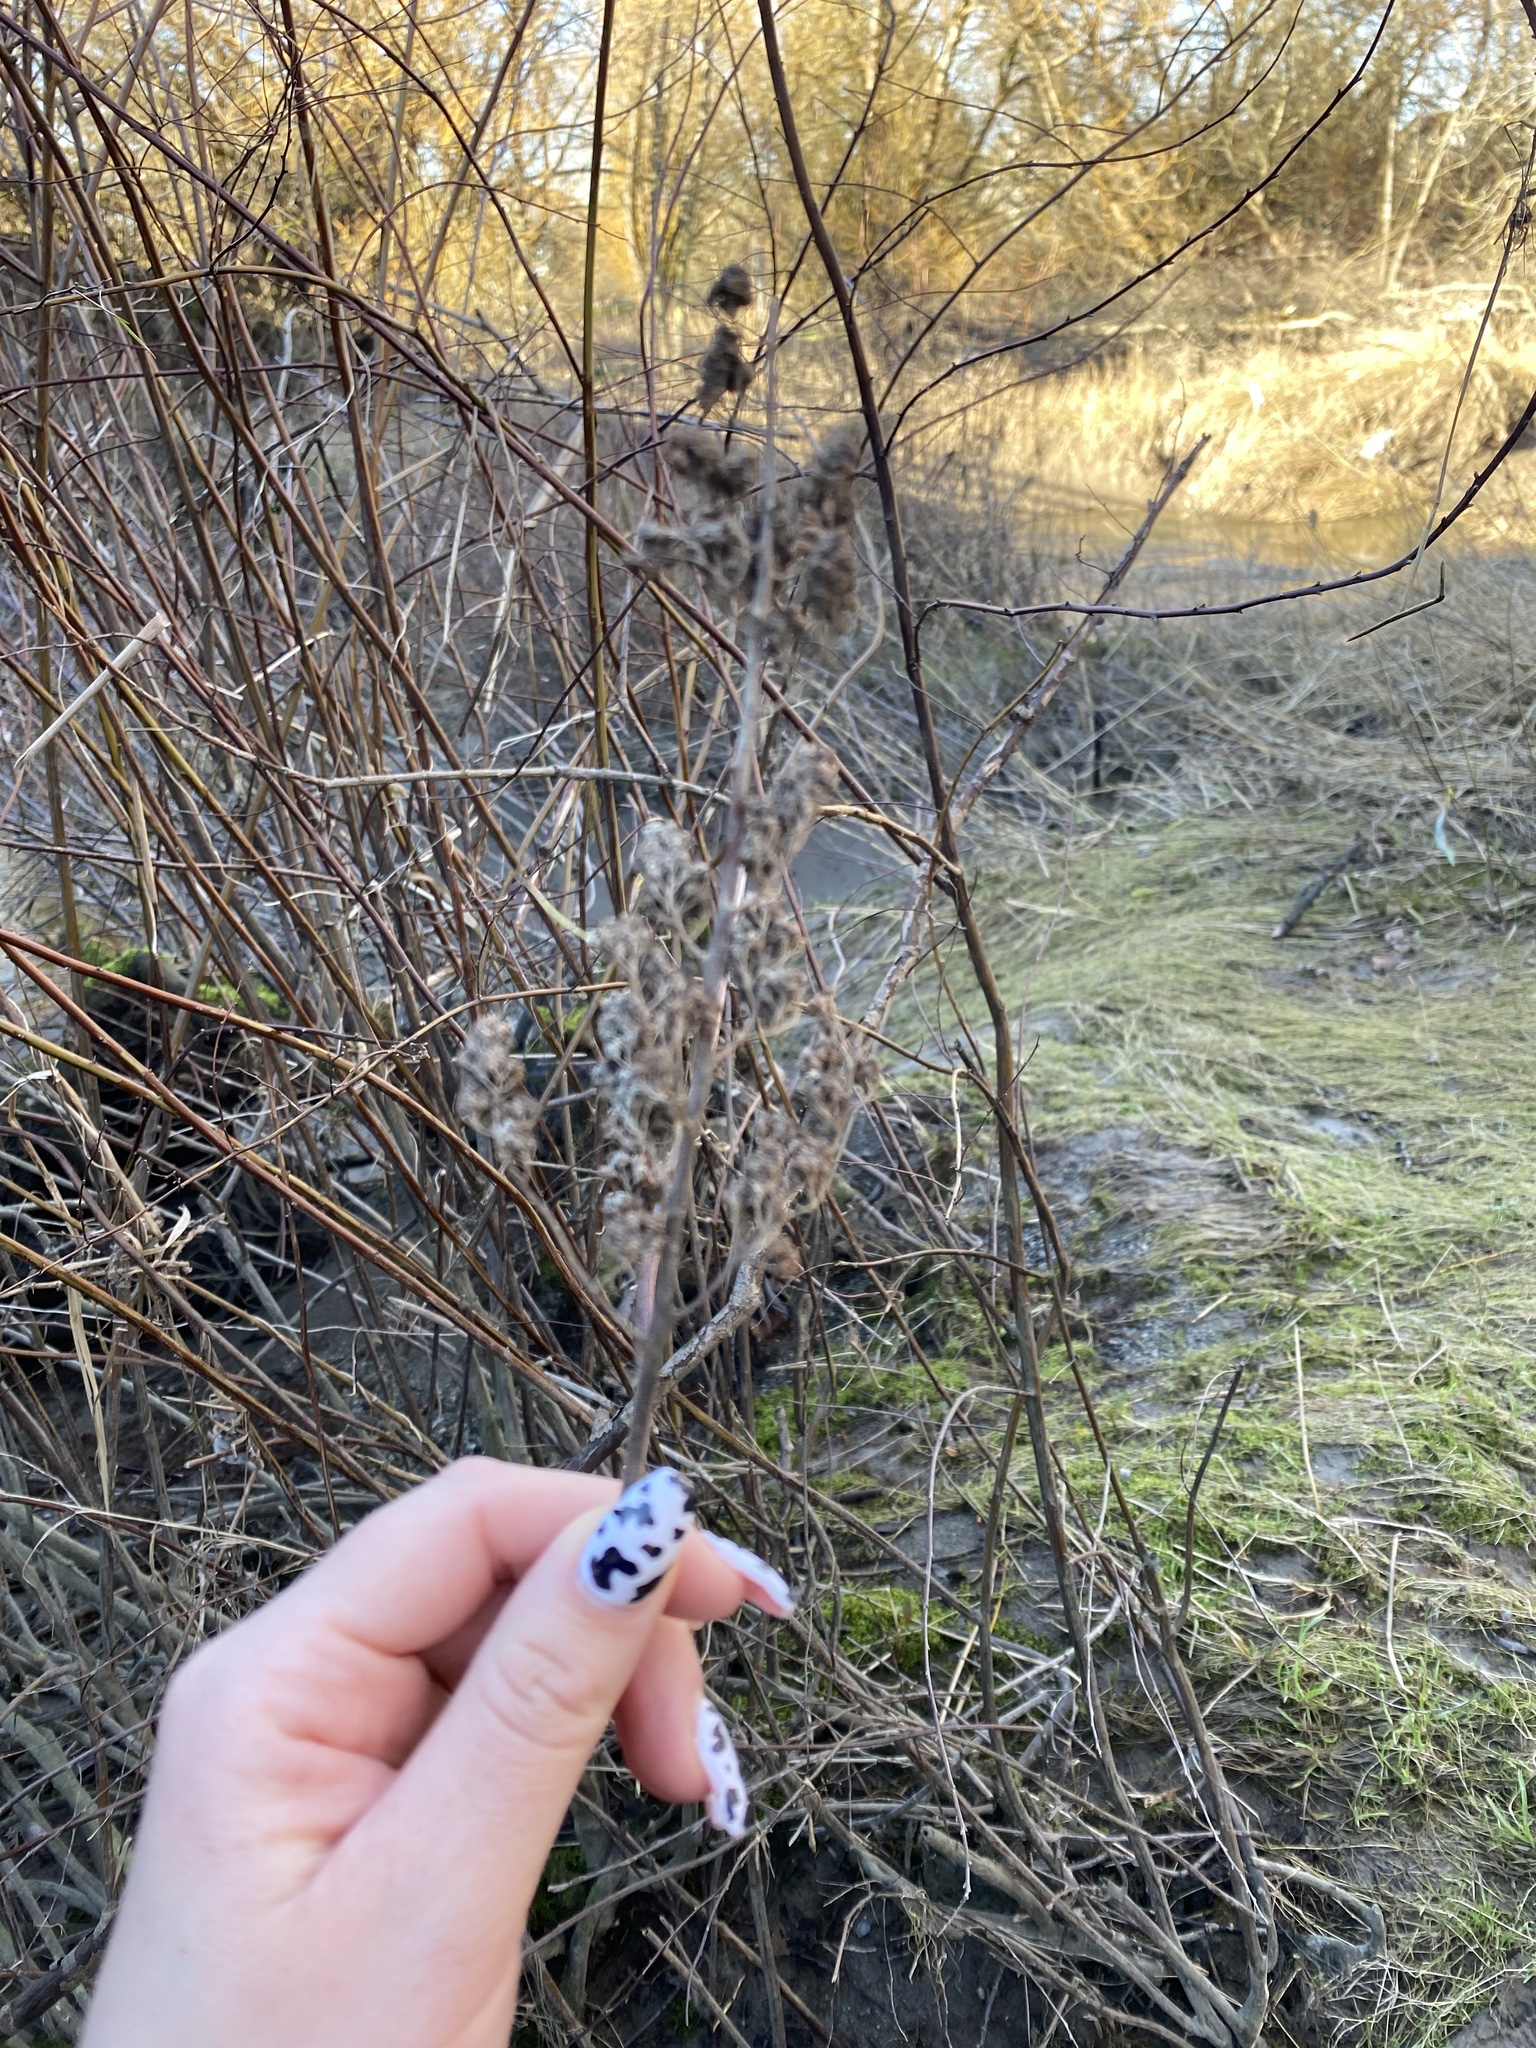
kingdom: Plantae
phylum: Tracheophyta
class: Magnoliopsida
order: Rosales
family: Rosaceae
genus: Spiraea
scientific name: Spiraea douglasii
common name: Steeplebush
